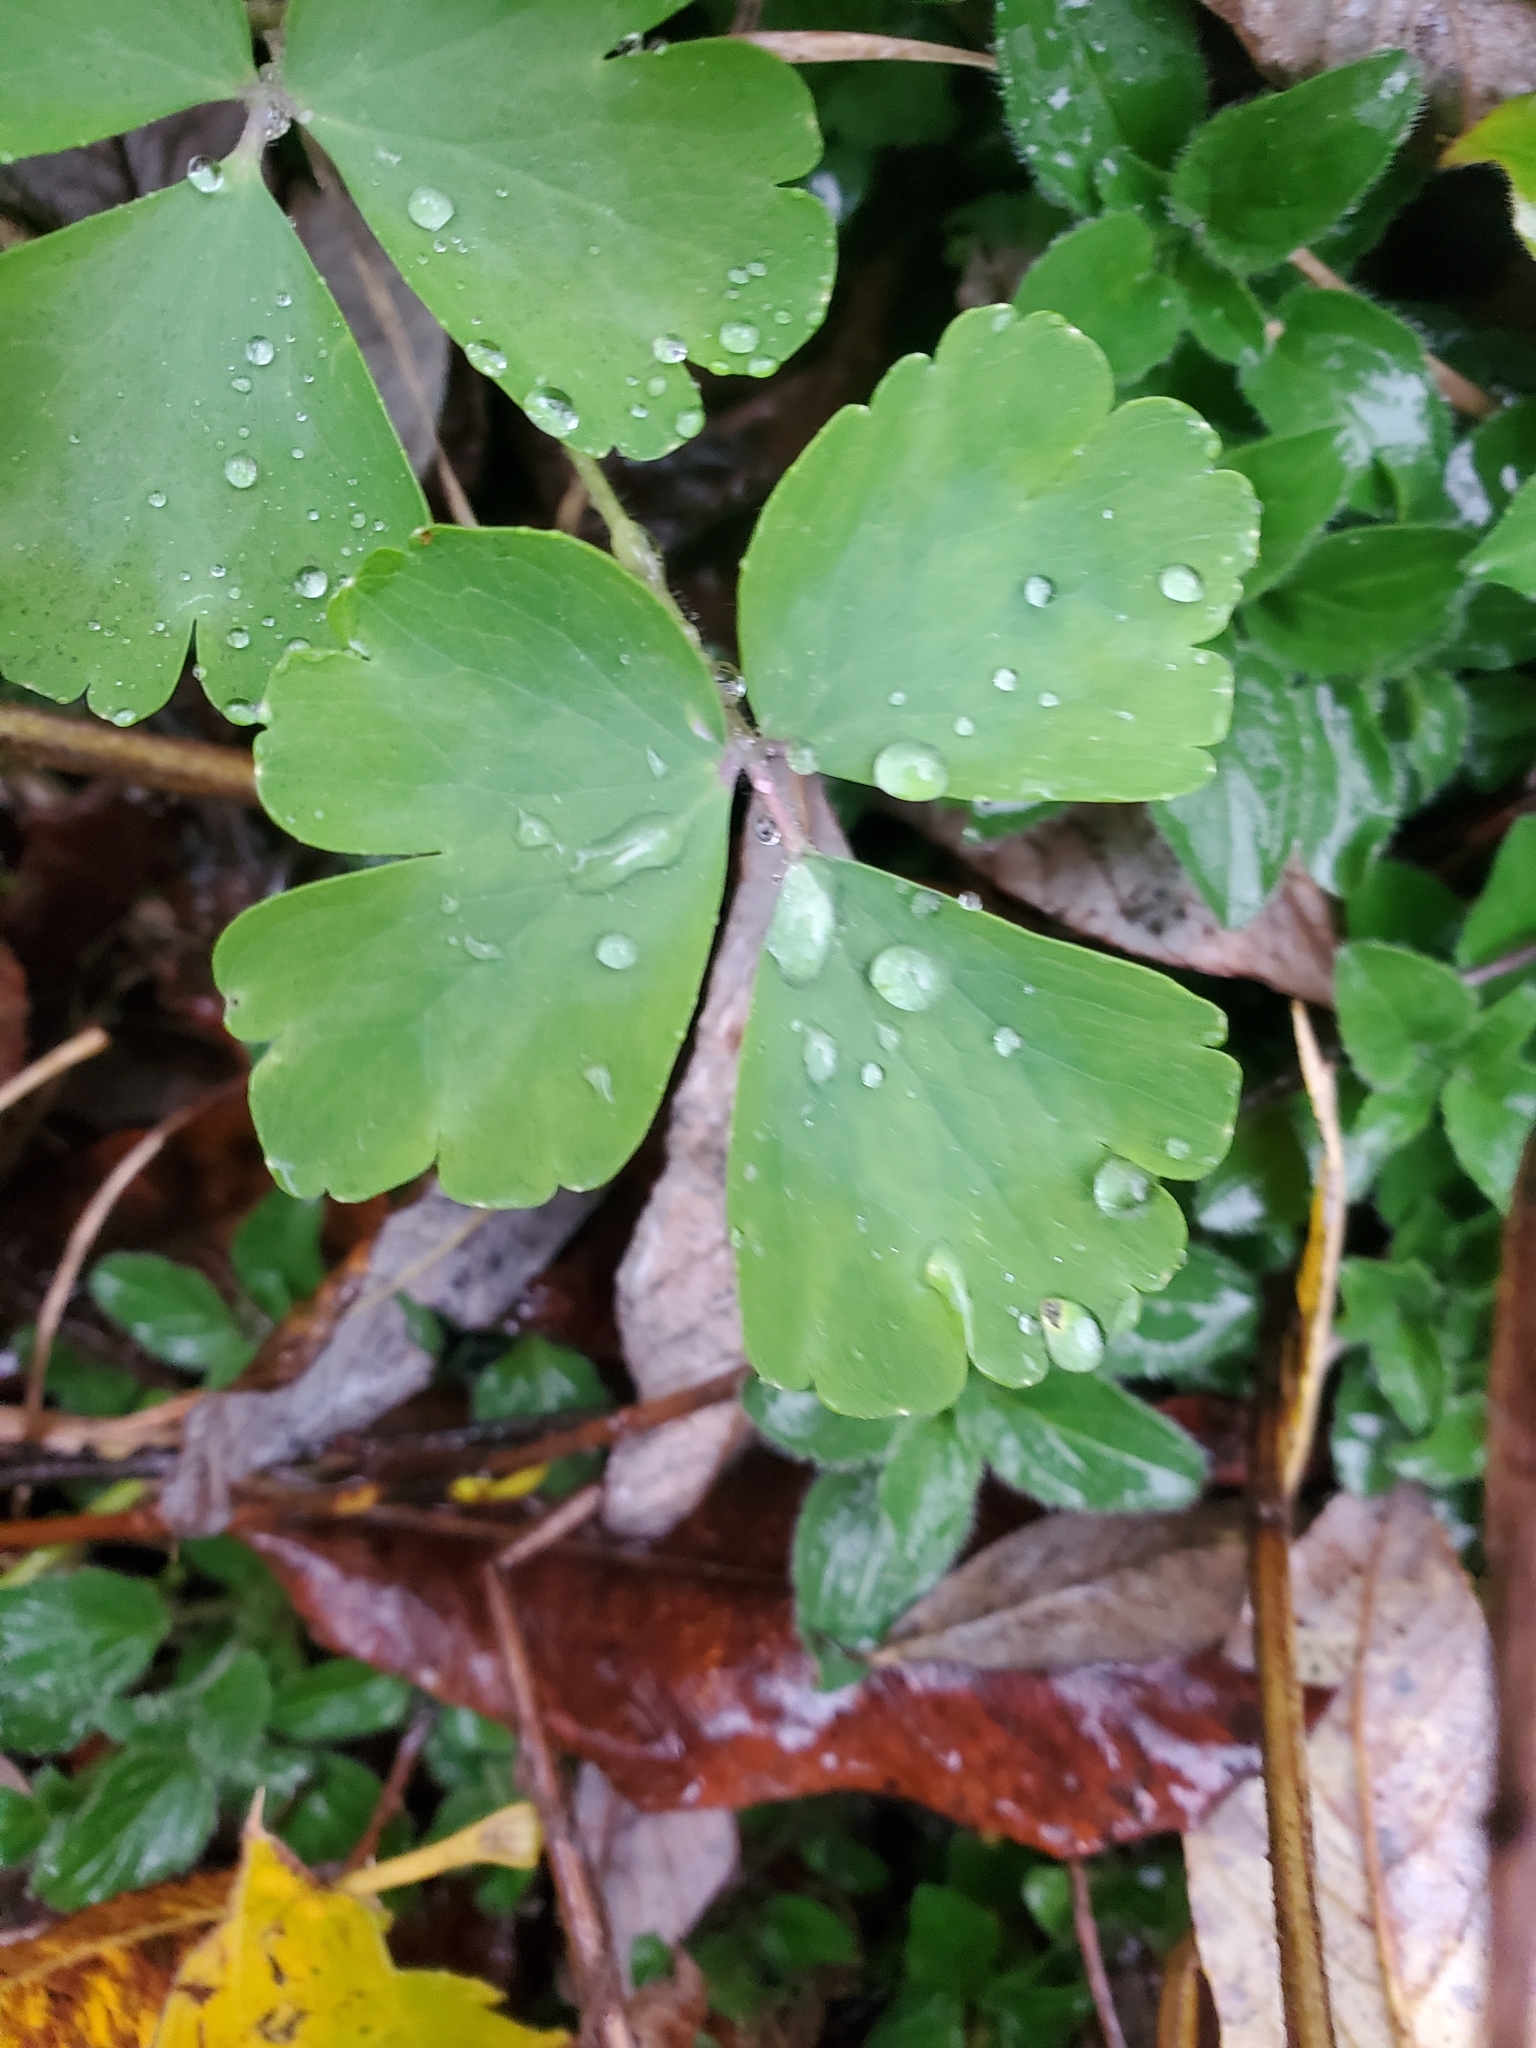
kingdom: Plantae
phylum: Tracheophyta
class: Magnoliopsida
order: Ranunculales
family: Ranunculaceae
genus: Aquilegia
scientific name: Aquilegia vulgaris
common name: Columbine
